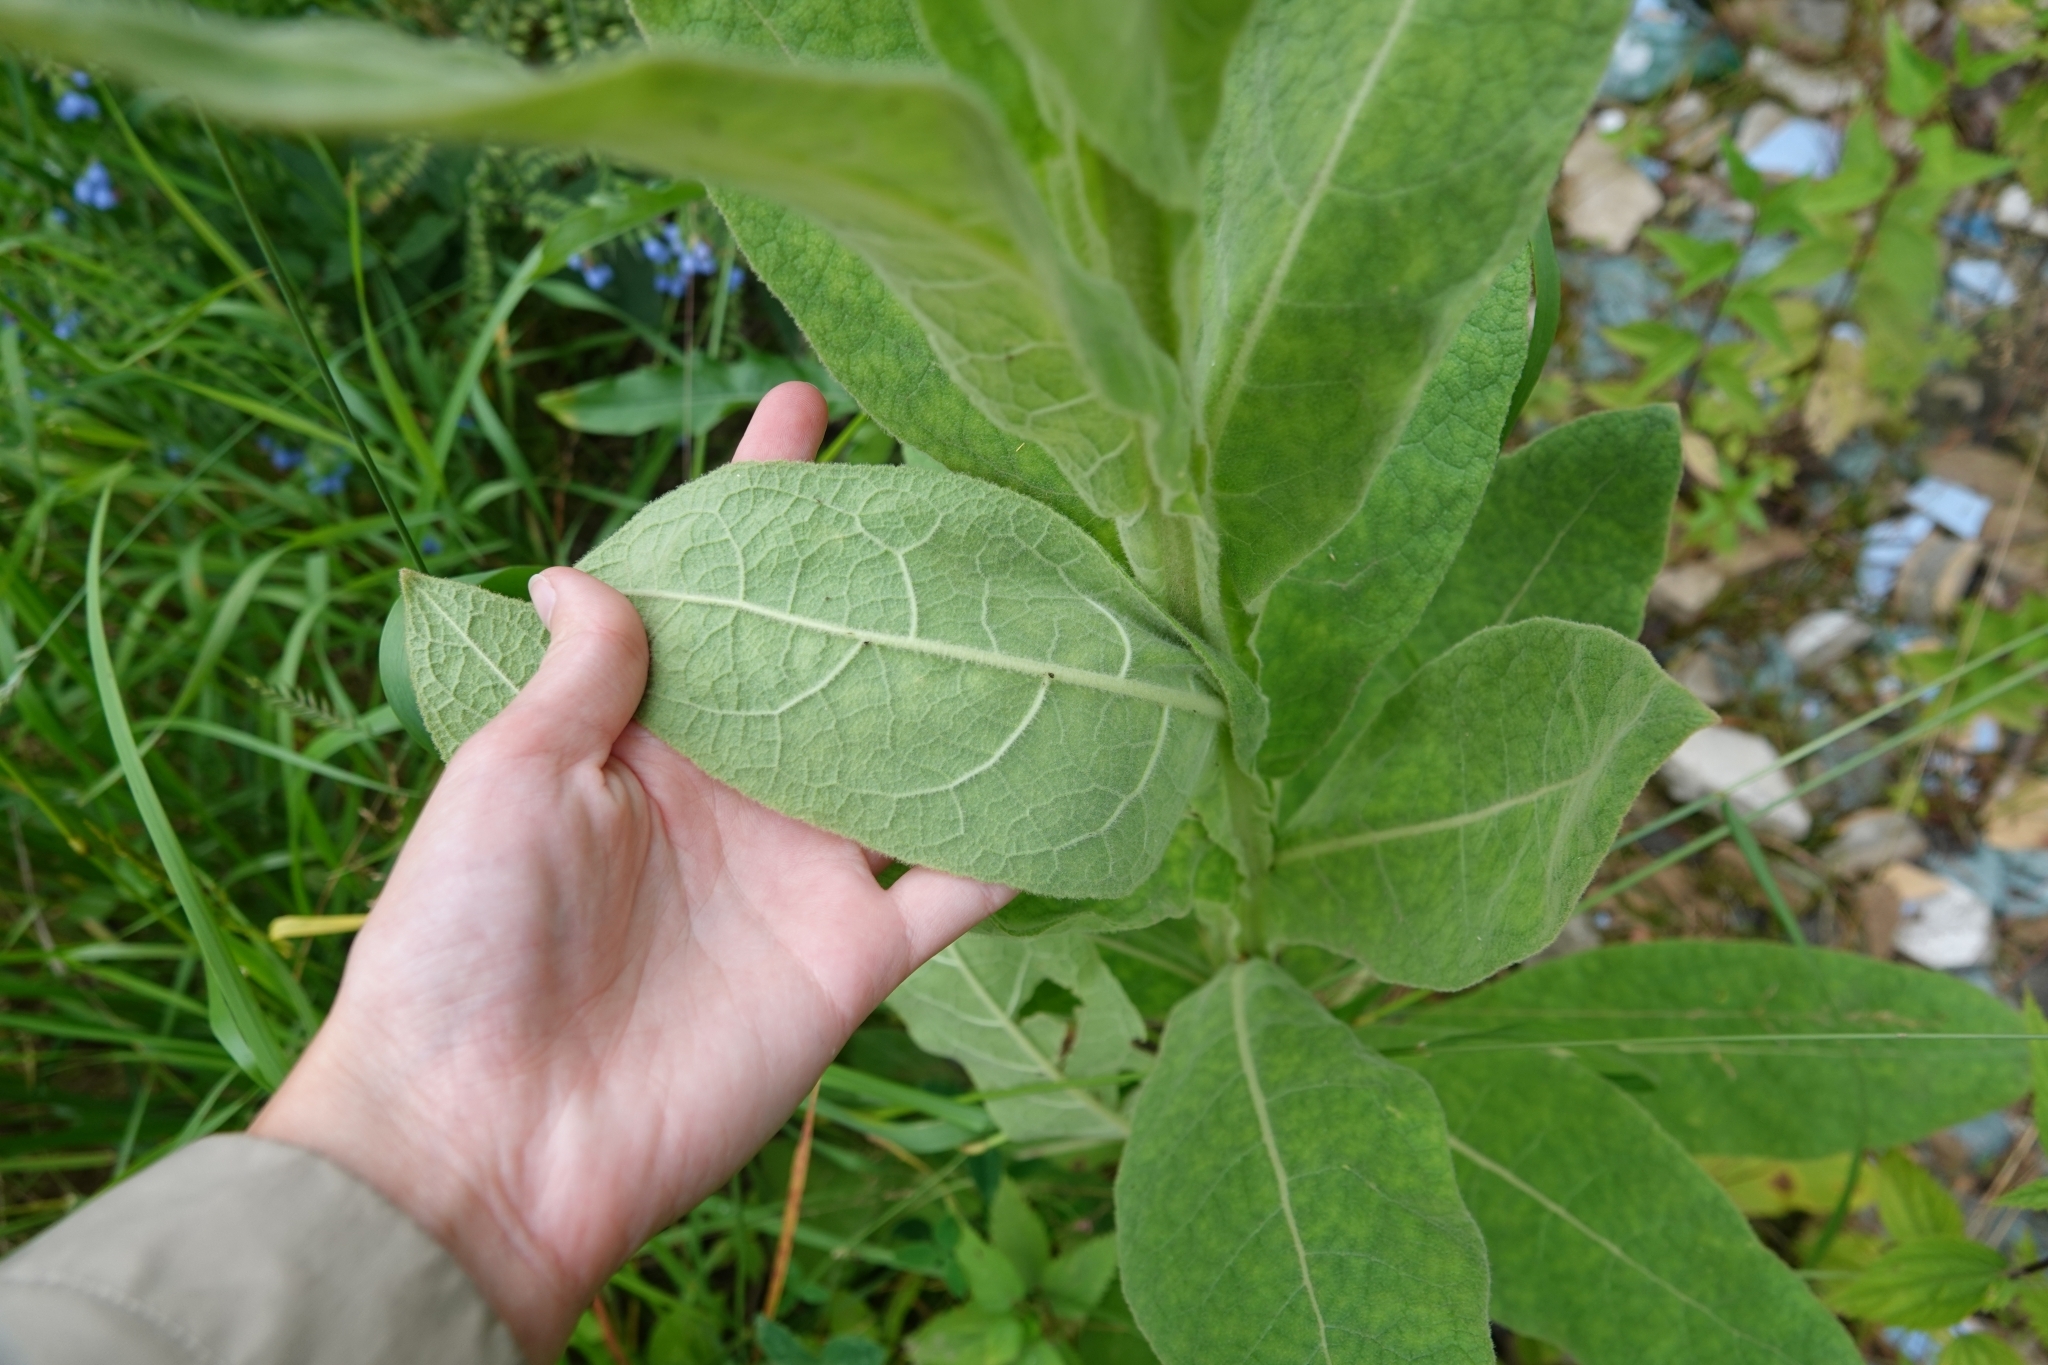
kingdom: Plantae
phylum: Tracheophyta
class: Magnoliopsida
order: Lamiales
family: Scrophulariaceae
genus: Verbascum
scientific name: Verbascum thapsus
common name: Common mullein
